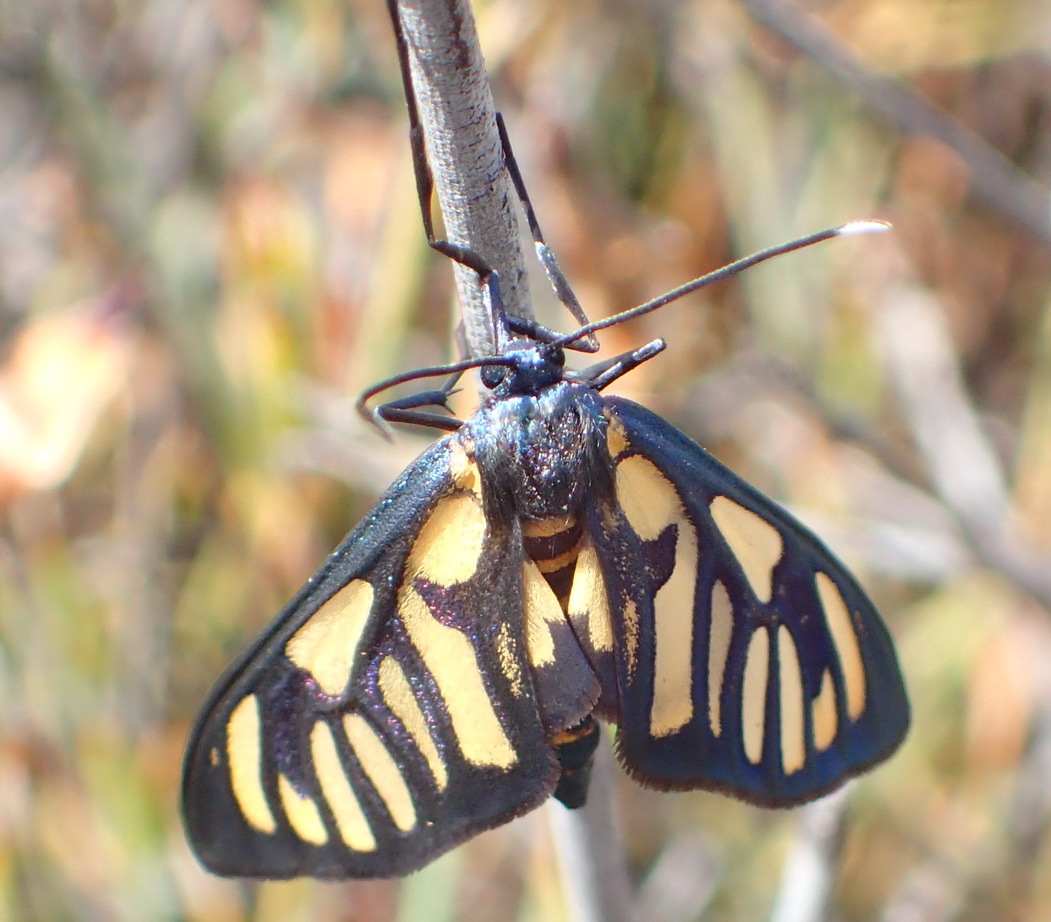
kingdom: Animalia
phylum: Arthropoda
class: Insecta
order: Lepidoptera
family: Erebidae
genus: Amata
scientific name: Amata polidamon
